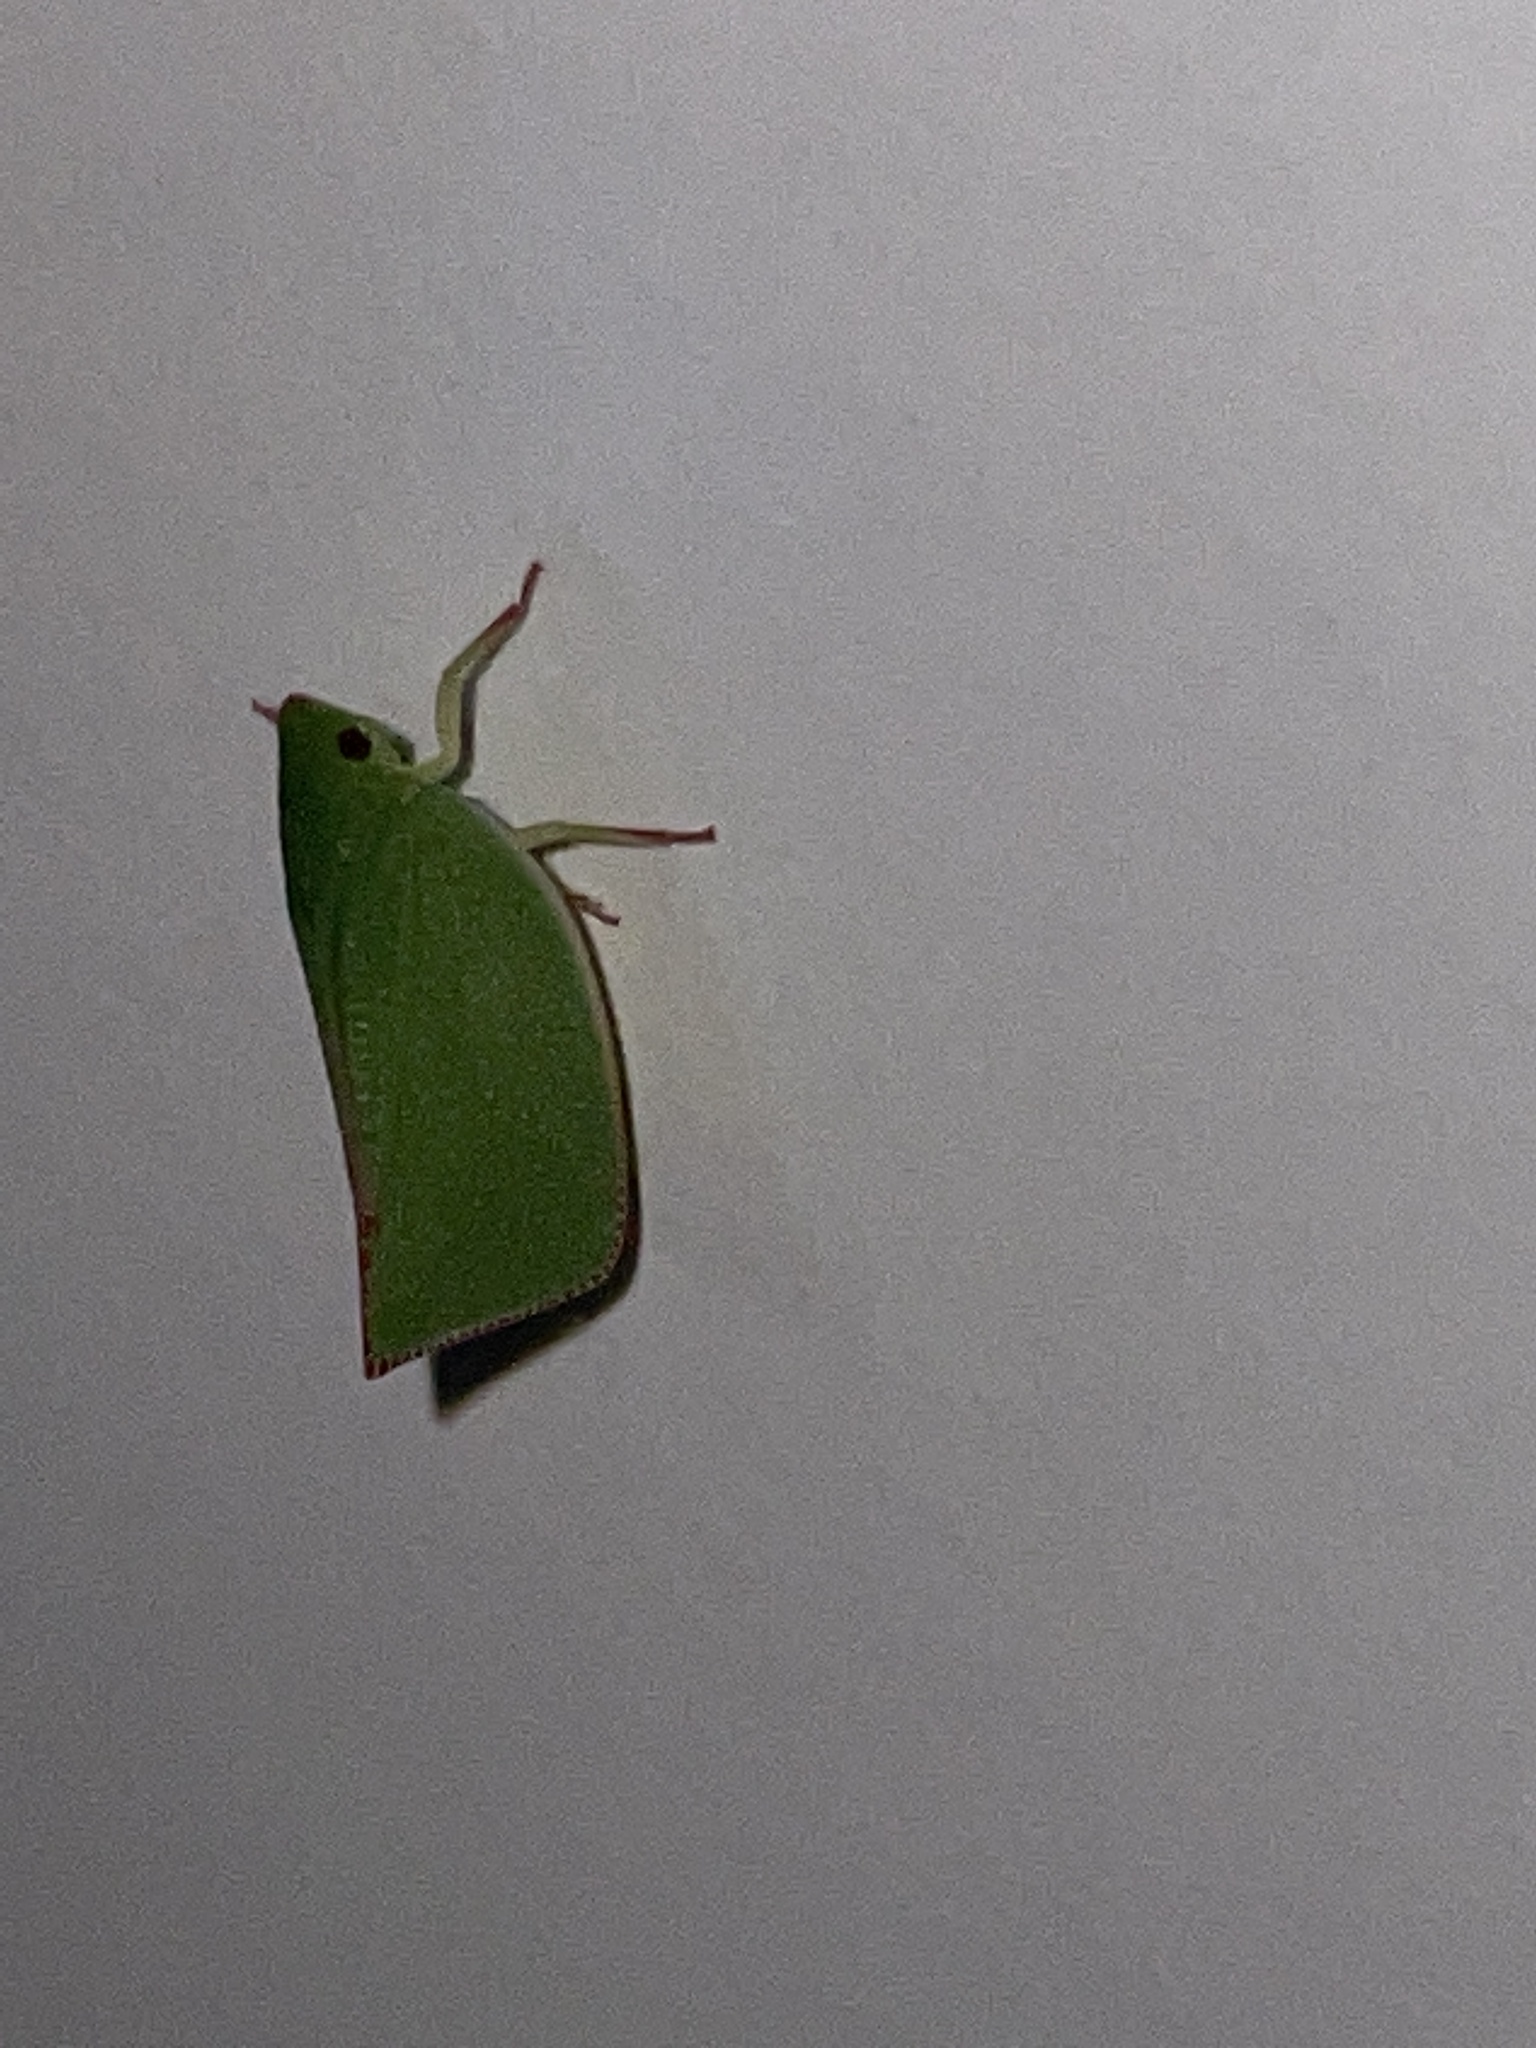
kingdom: Animalia
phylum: Arthropoda
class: Insecta
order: Hemiptera
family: Flatidae
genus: Siphanta
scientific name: Siphanta
